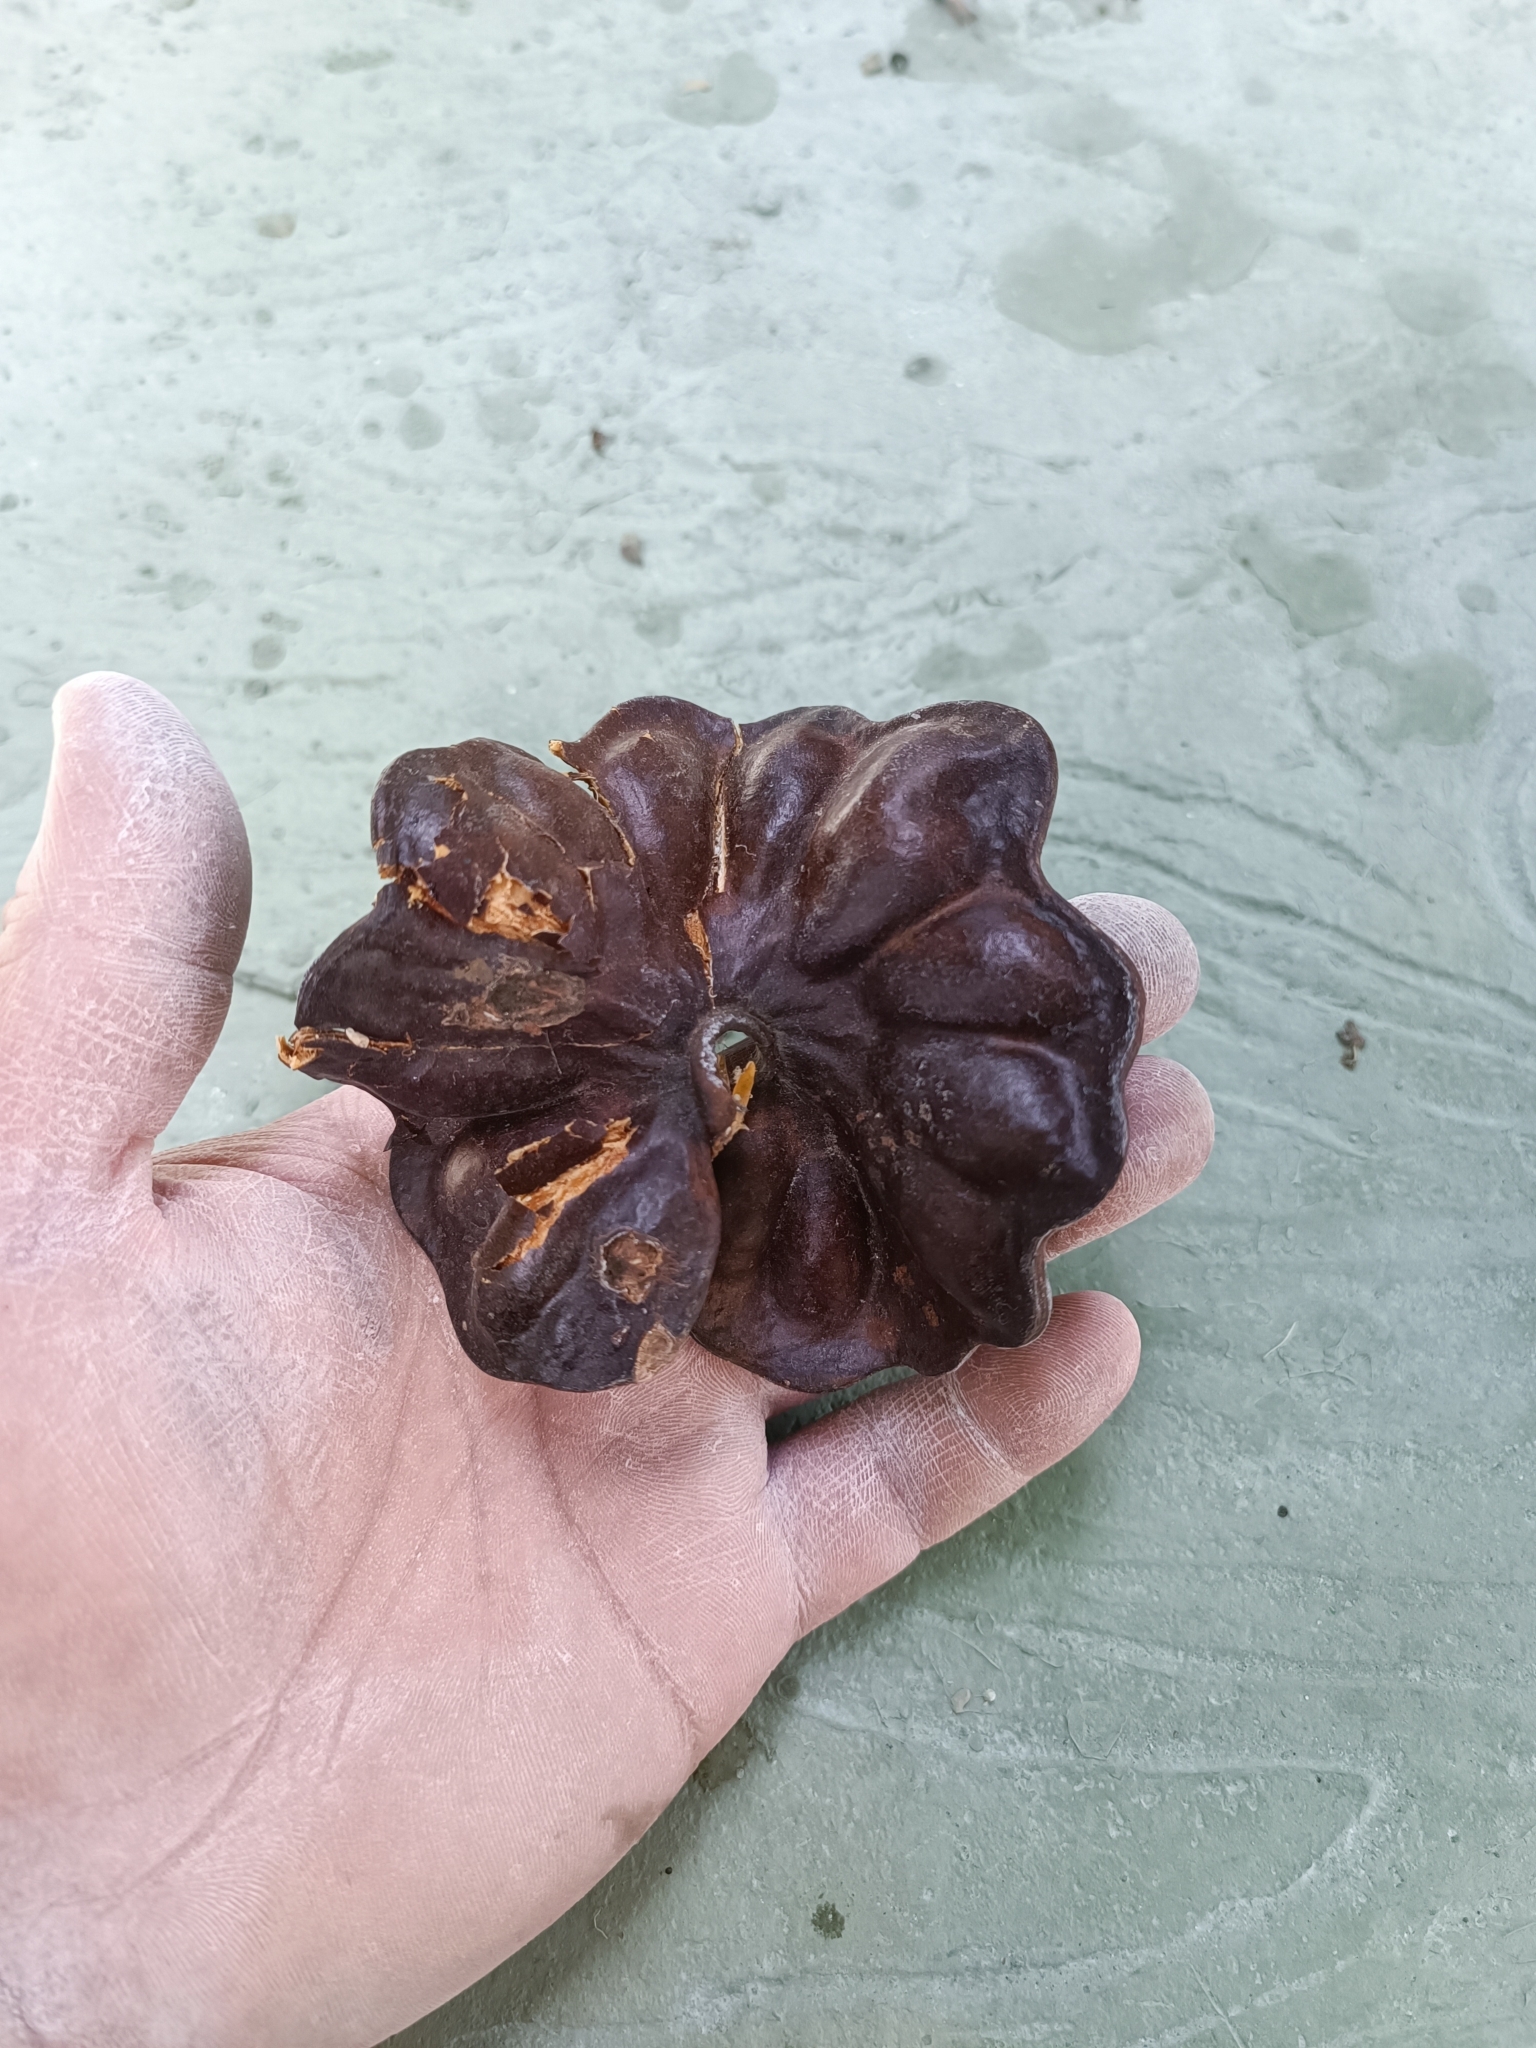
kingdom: Plantae
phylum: Tracheophyta
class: Magnoliopsida
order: Fabales
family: Fabaceae
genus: Enterolobium
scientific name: Enterolobium cyclocarpum
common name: Ear tree
